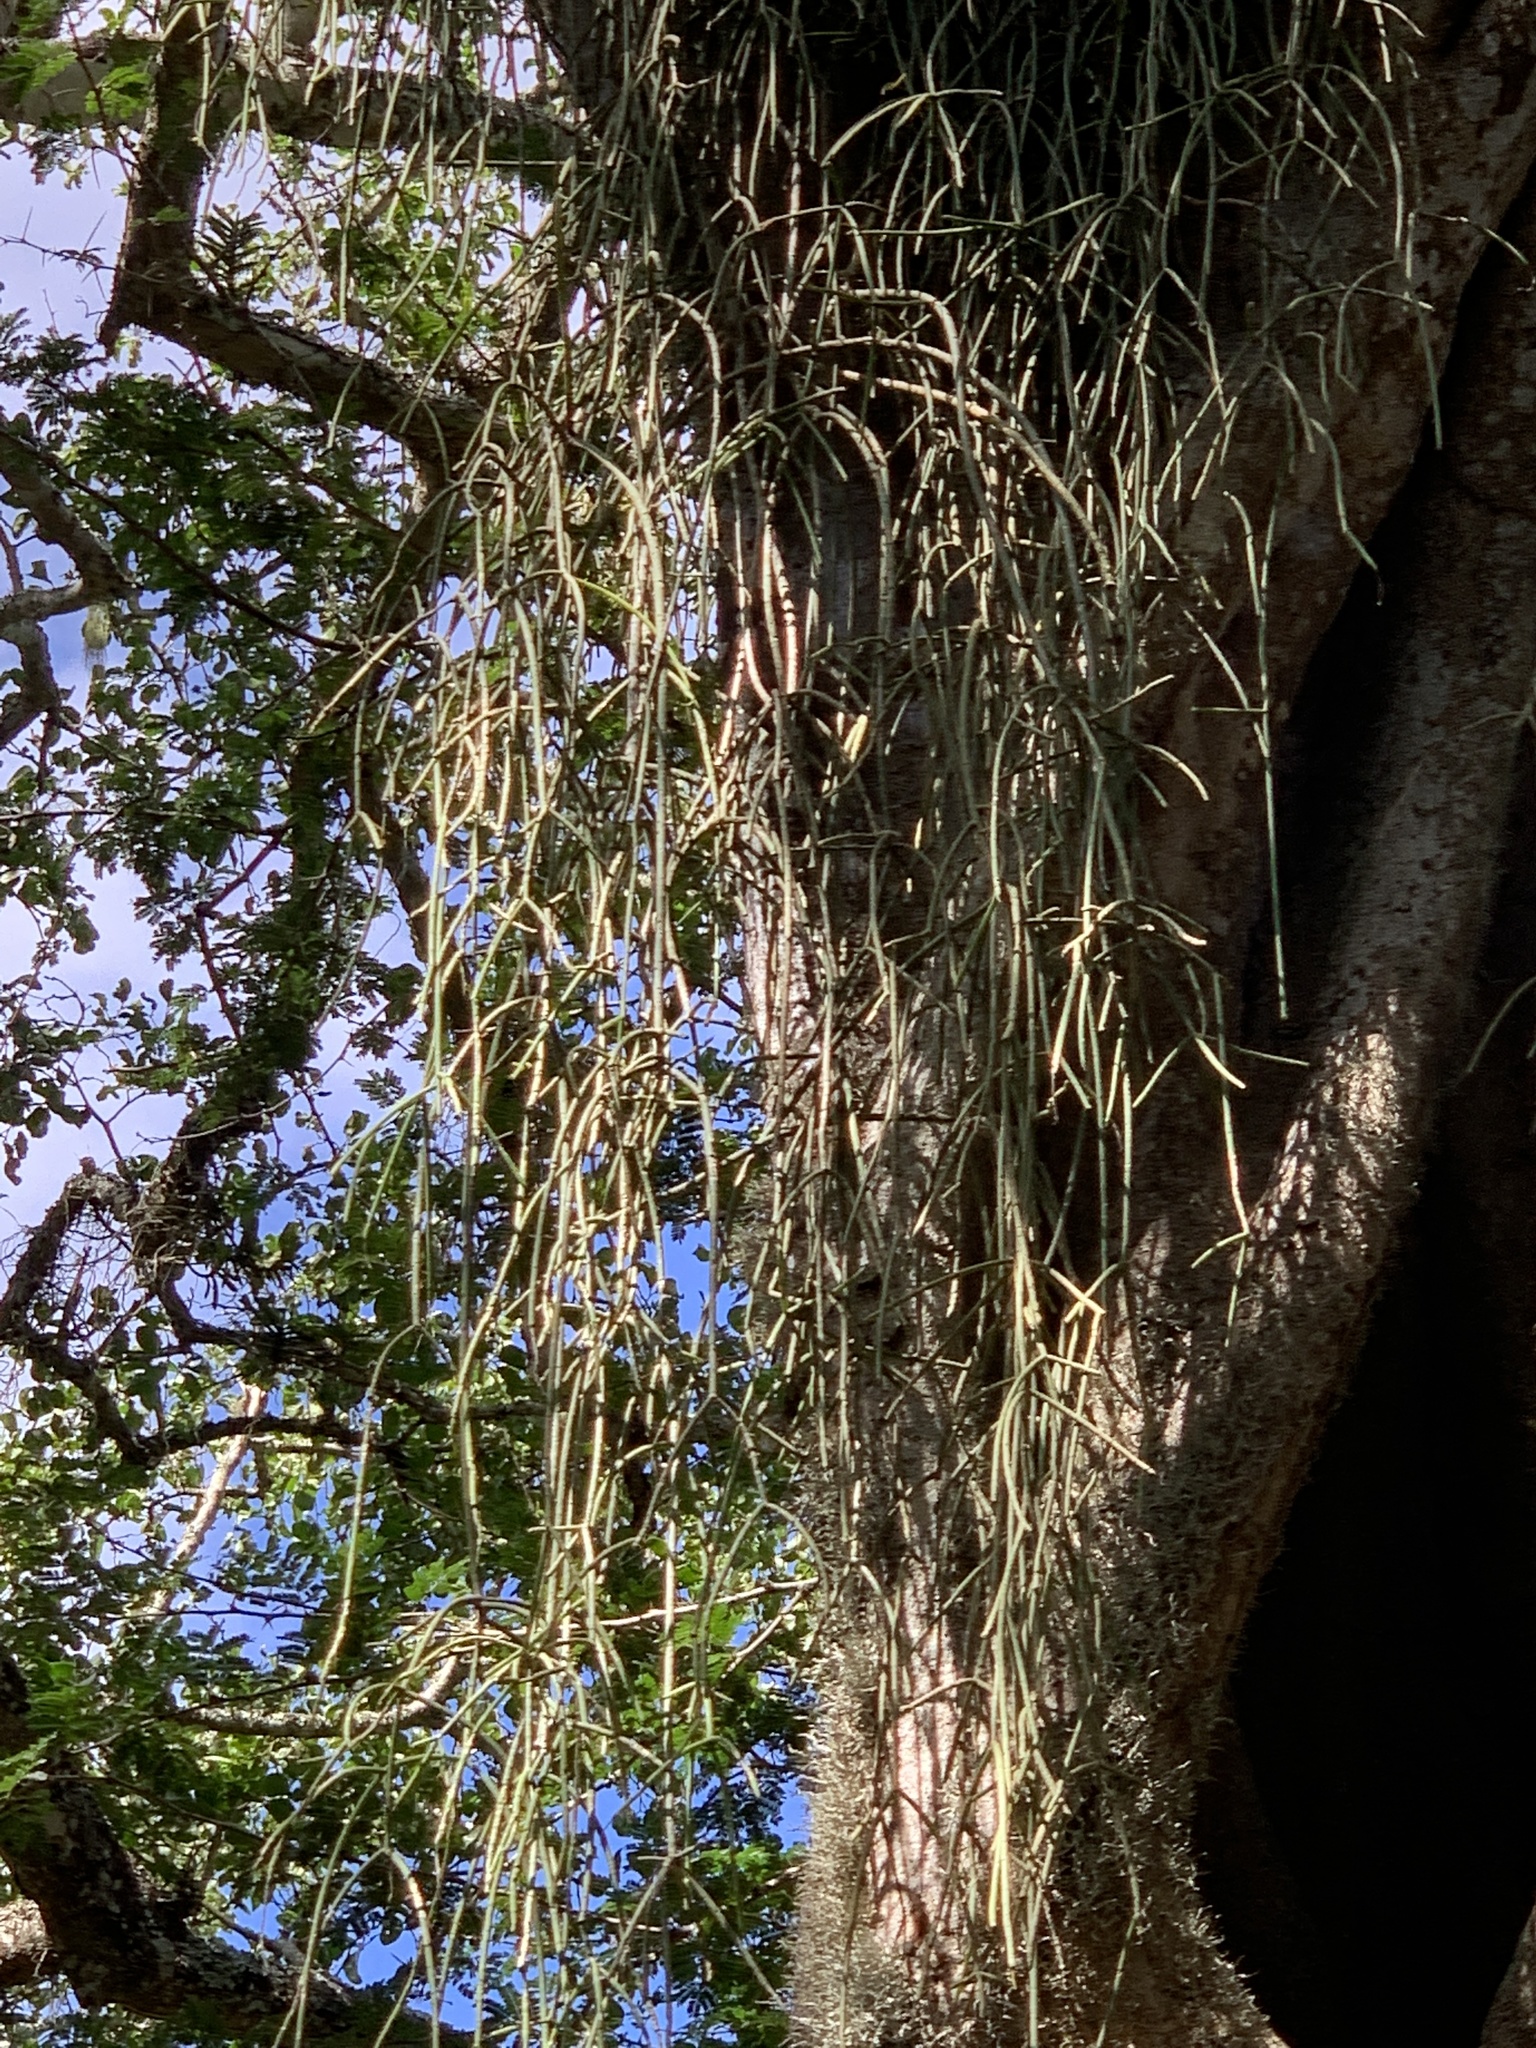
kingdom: Plantae
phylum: Tracheophyta
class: Magnoliopsida
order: Caryophyllales
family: Cactaceae
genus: Rhipsalis
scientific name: Rhipsalis baccifera
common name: Mistletoe cactus
